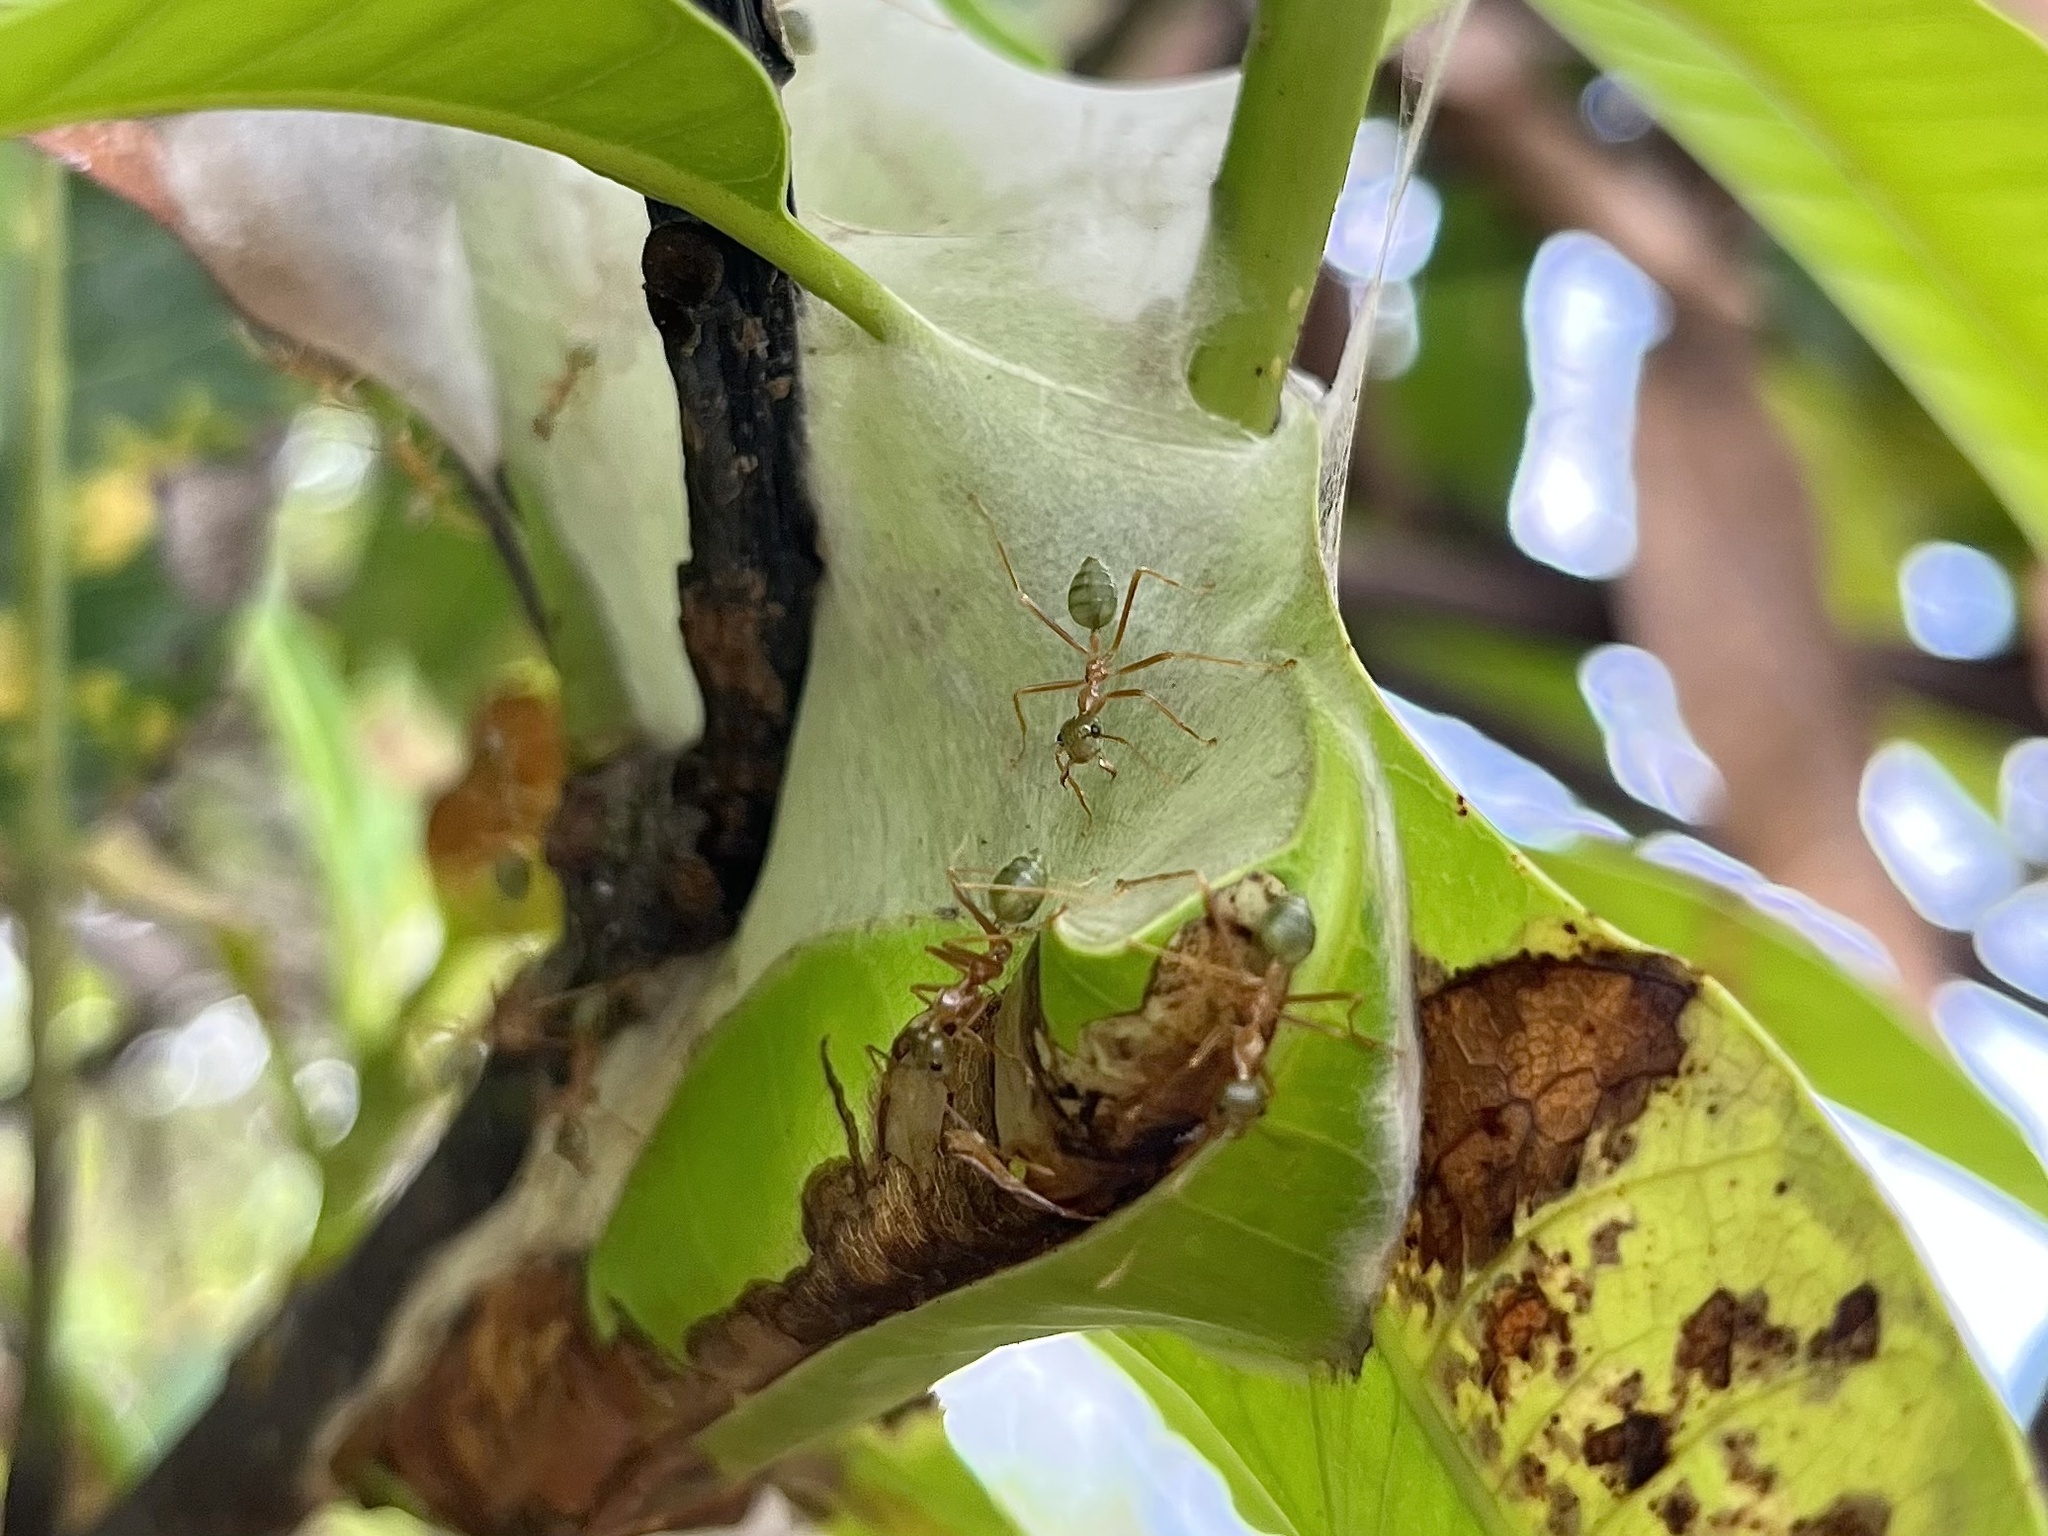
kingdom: Animalia
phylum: Arthropoda
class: Insecta
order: Hymenoptera
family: Formicidae
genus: Oecophylla
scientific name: Oecophylla smaragdina
